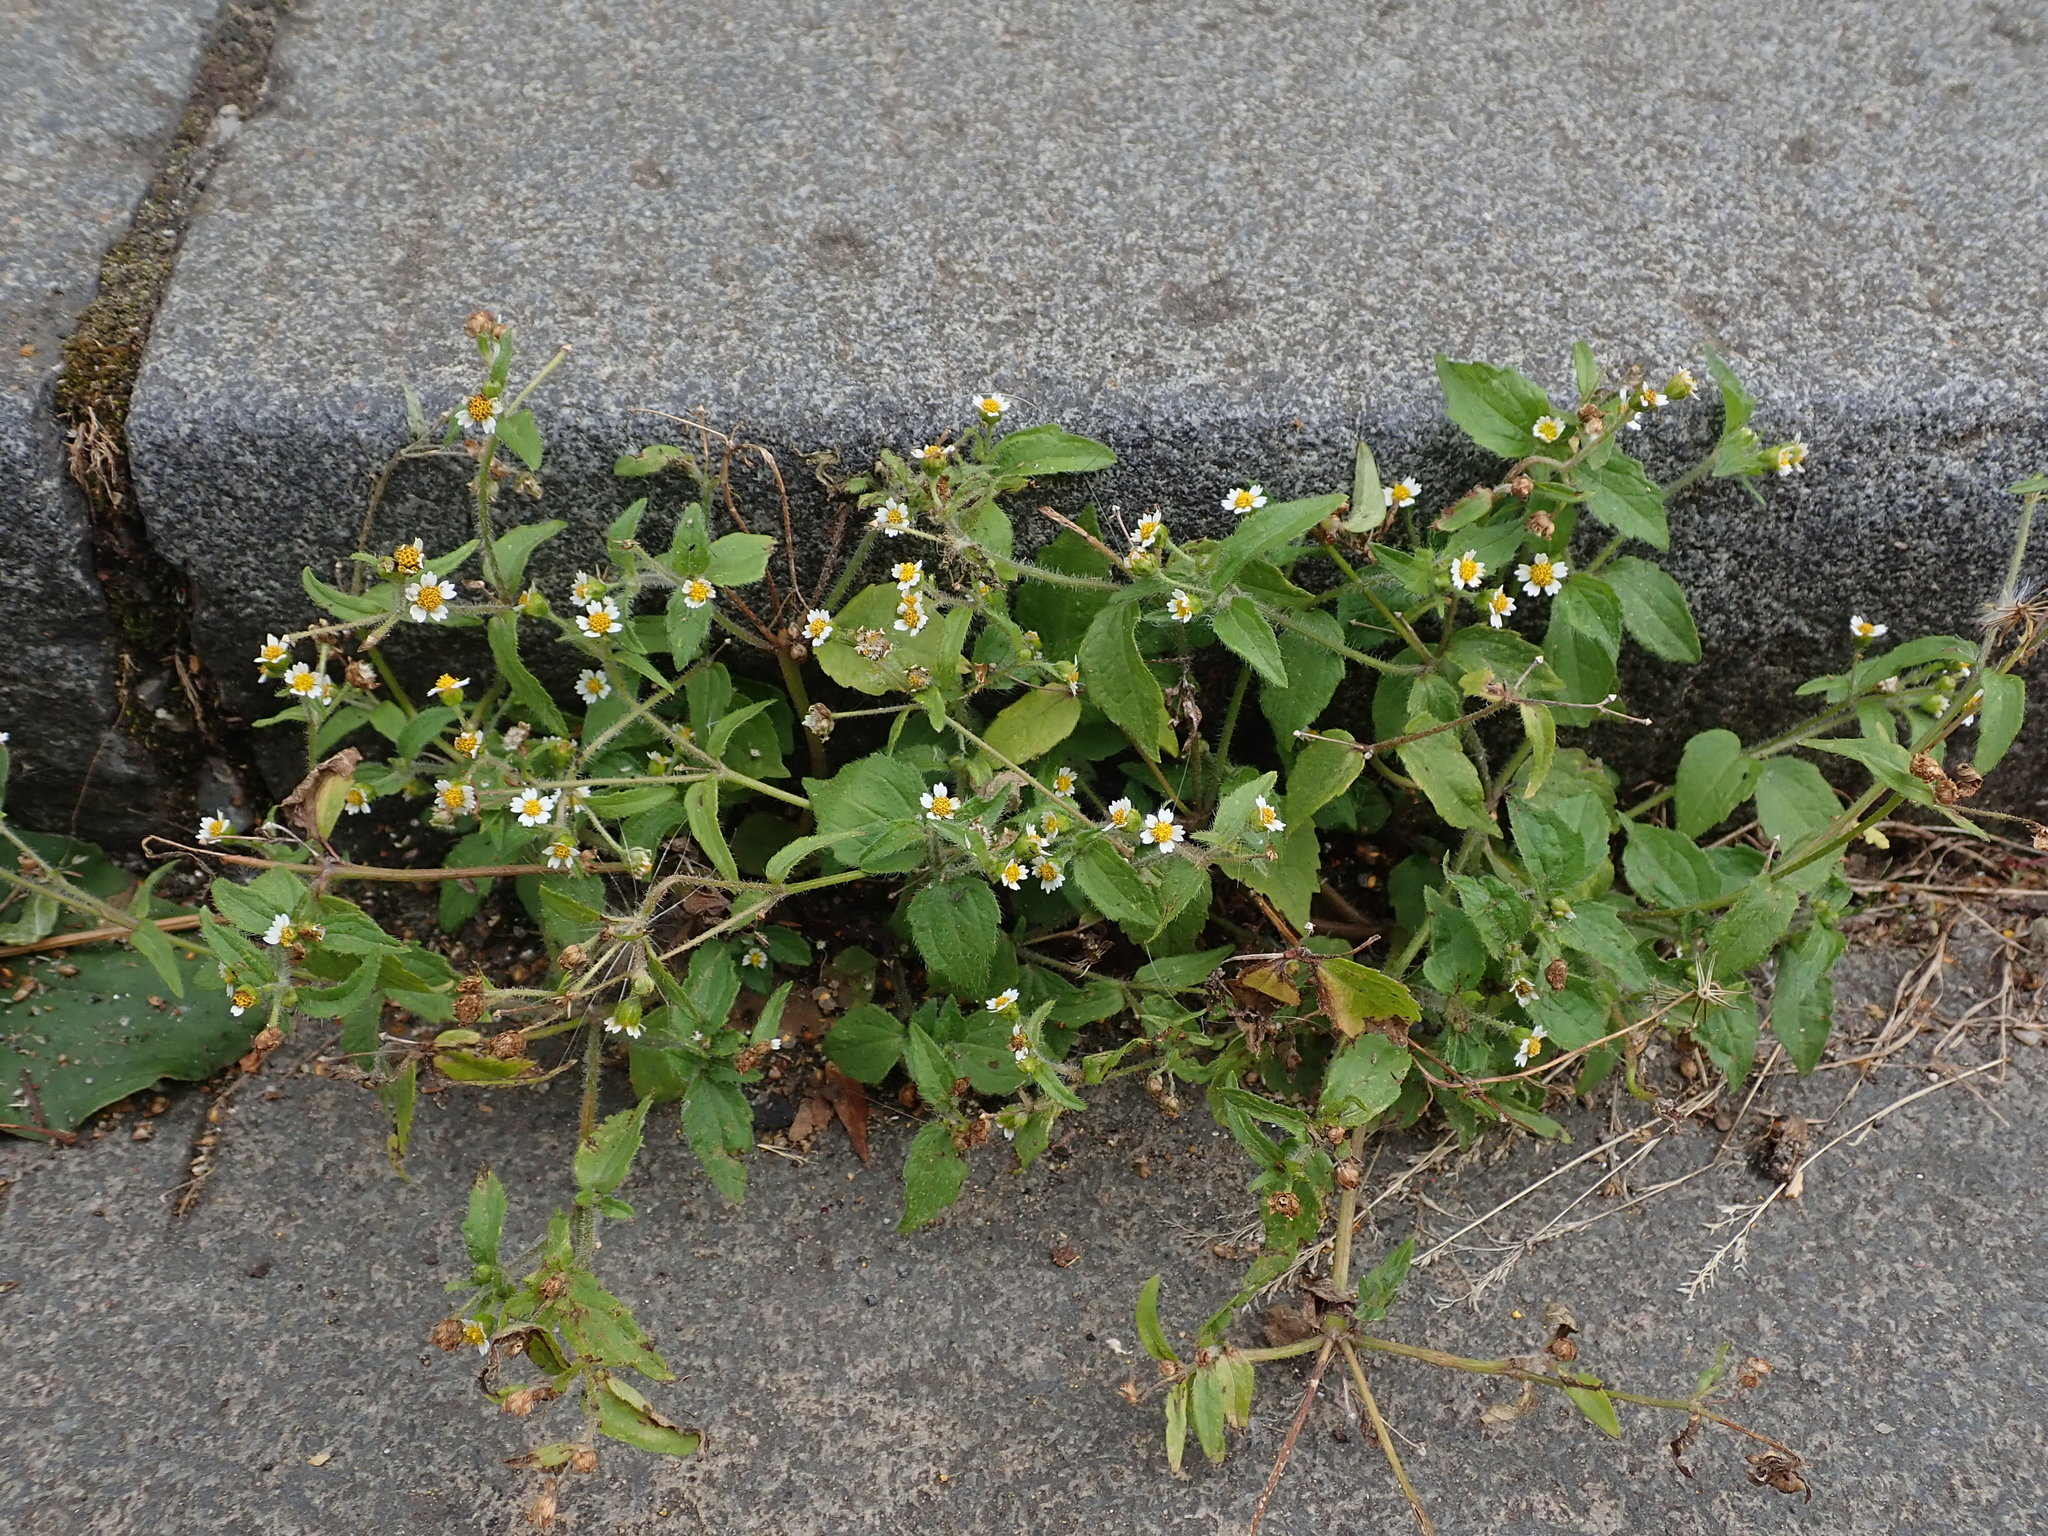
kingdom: Plantae
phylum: Tracheophyta
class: Magnoliopsida
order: Asterales
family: Asteraceae
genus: Galinsoga
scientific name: Galinsoga quadriradiata
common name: Shaggy soldier
